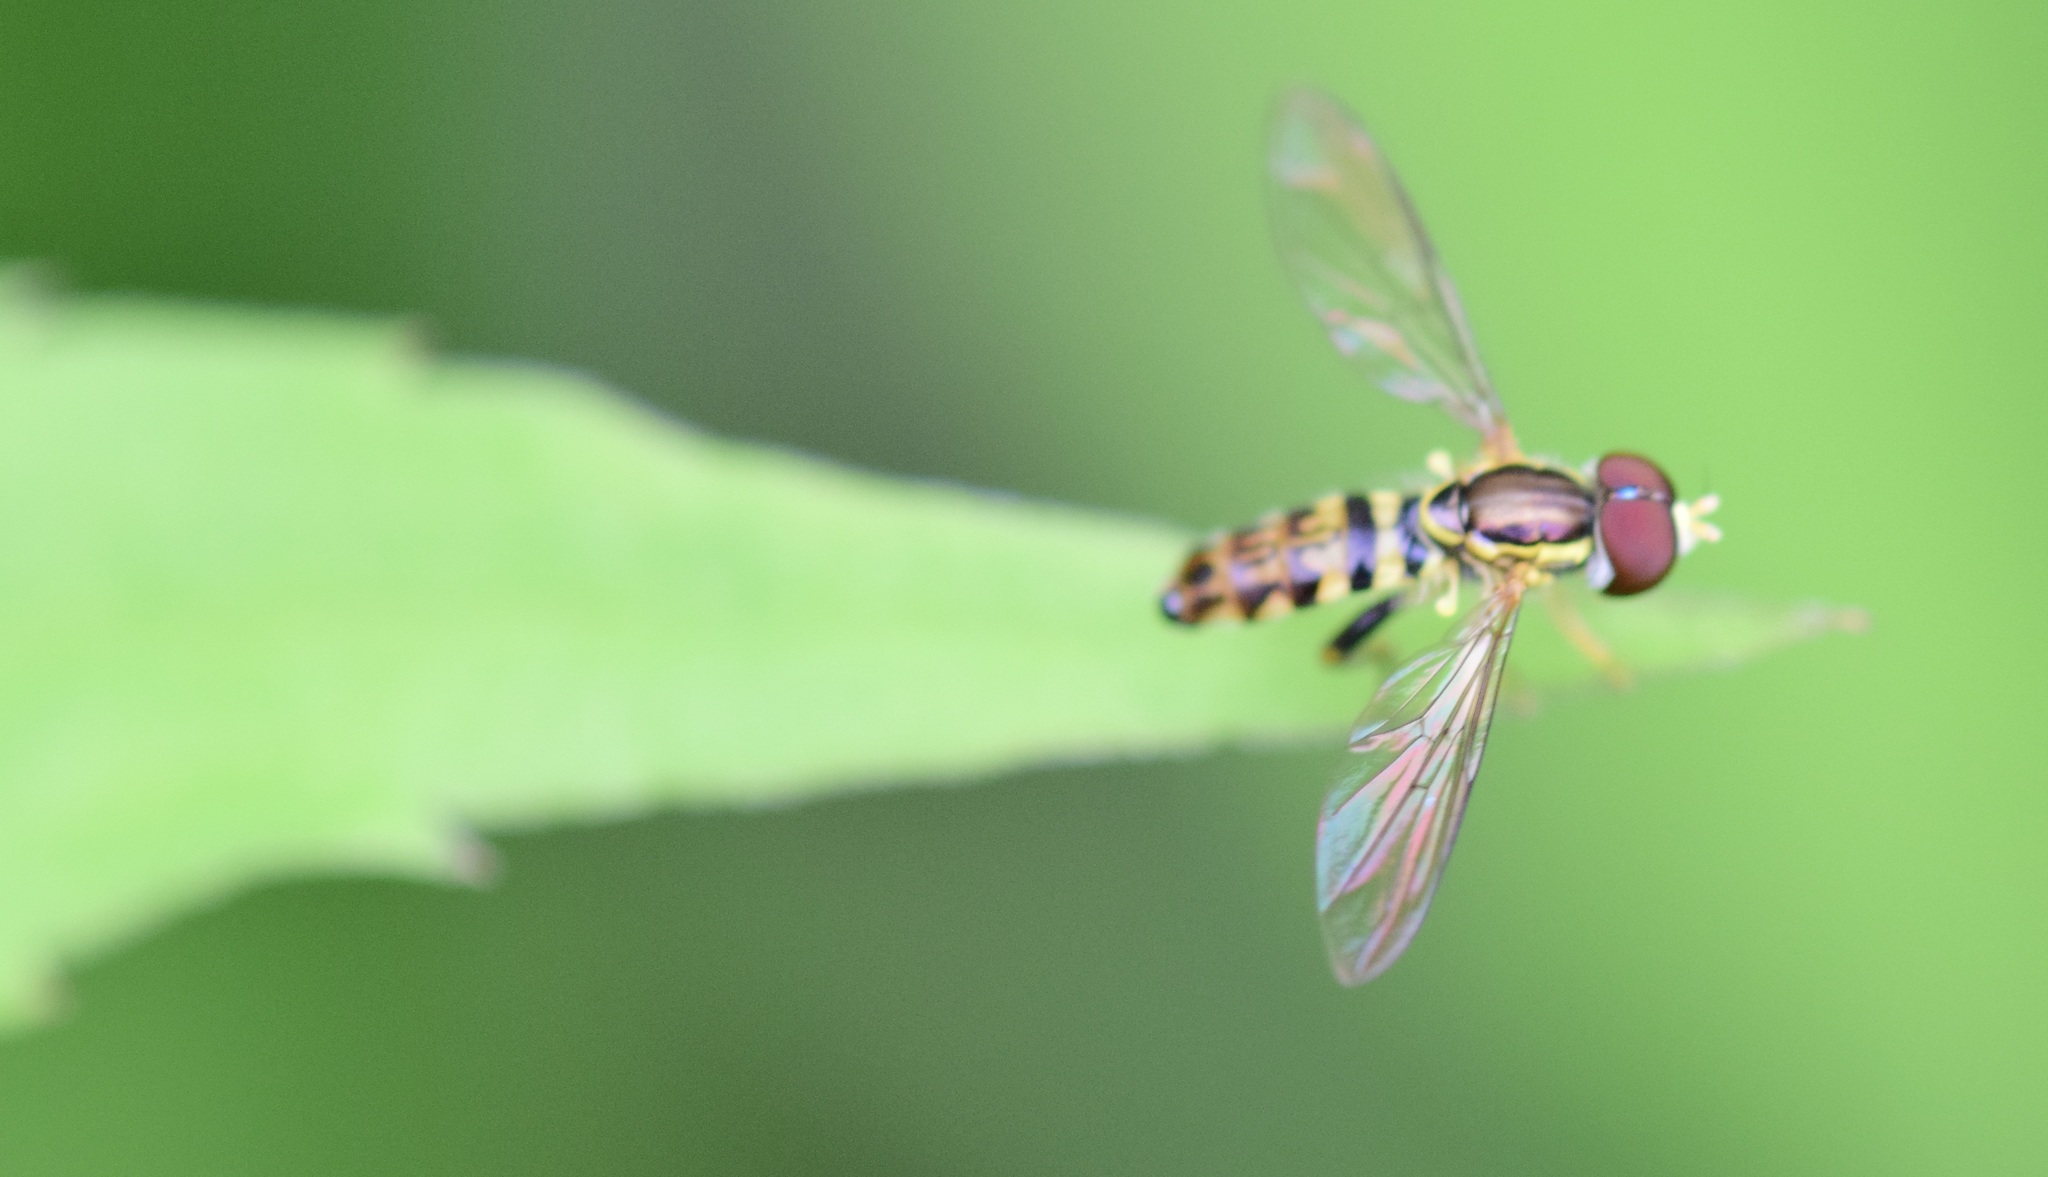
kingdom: Animalia
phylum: Arthropoda
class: Insecta
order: Diptera
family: Syrphidae
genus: Toxomerus
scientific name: Toxomerus geminatus
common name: Eastern calligrapher
